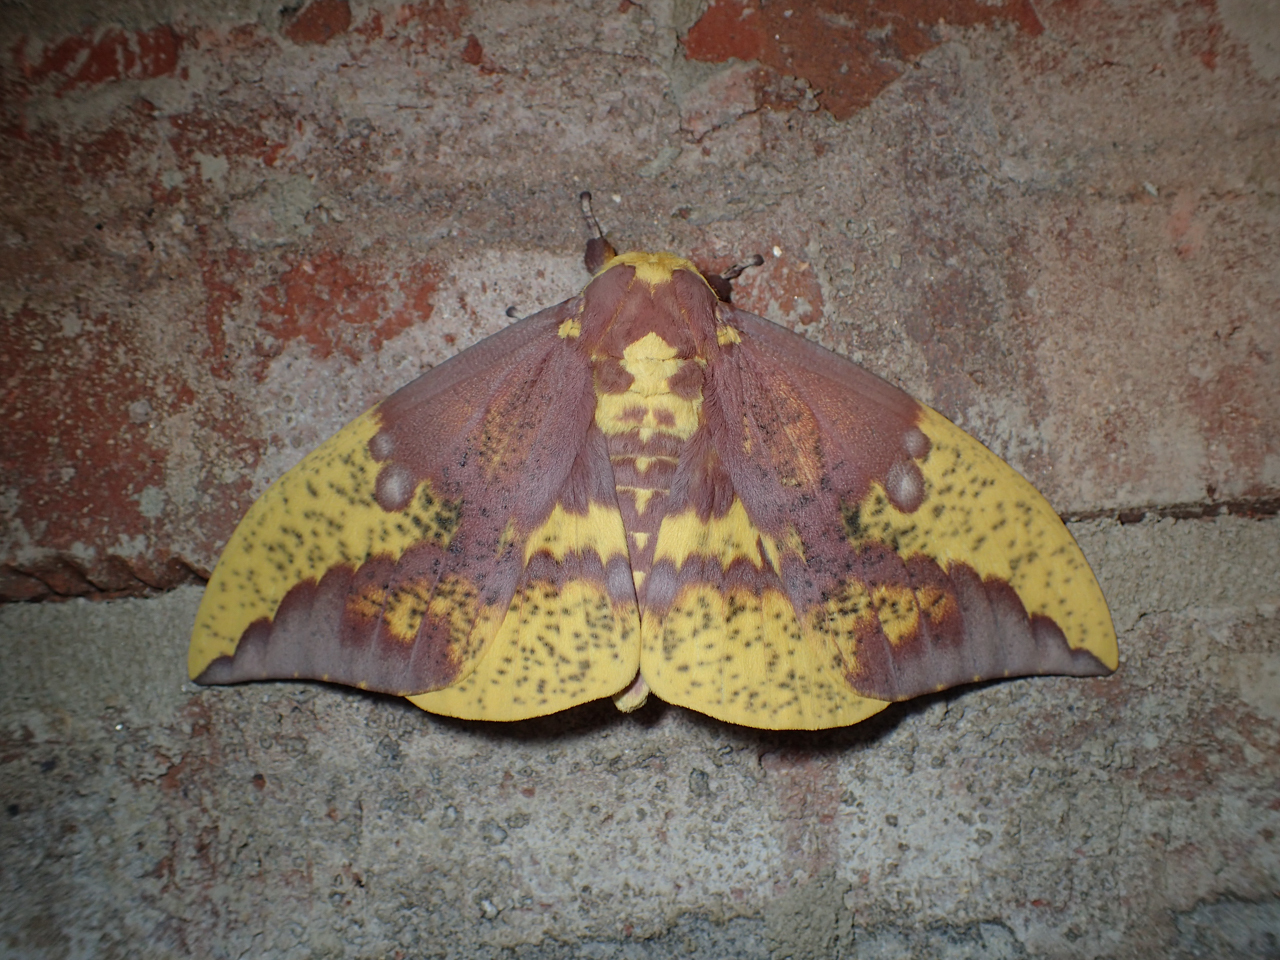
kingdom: Animalia
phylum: Arthropoda
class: Insecta
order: Lepidoptera
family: Saturniidae
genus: Eacles
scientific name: Eacles imperialis
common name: Imperial moth
